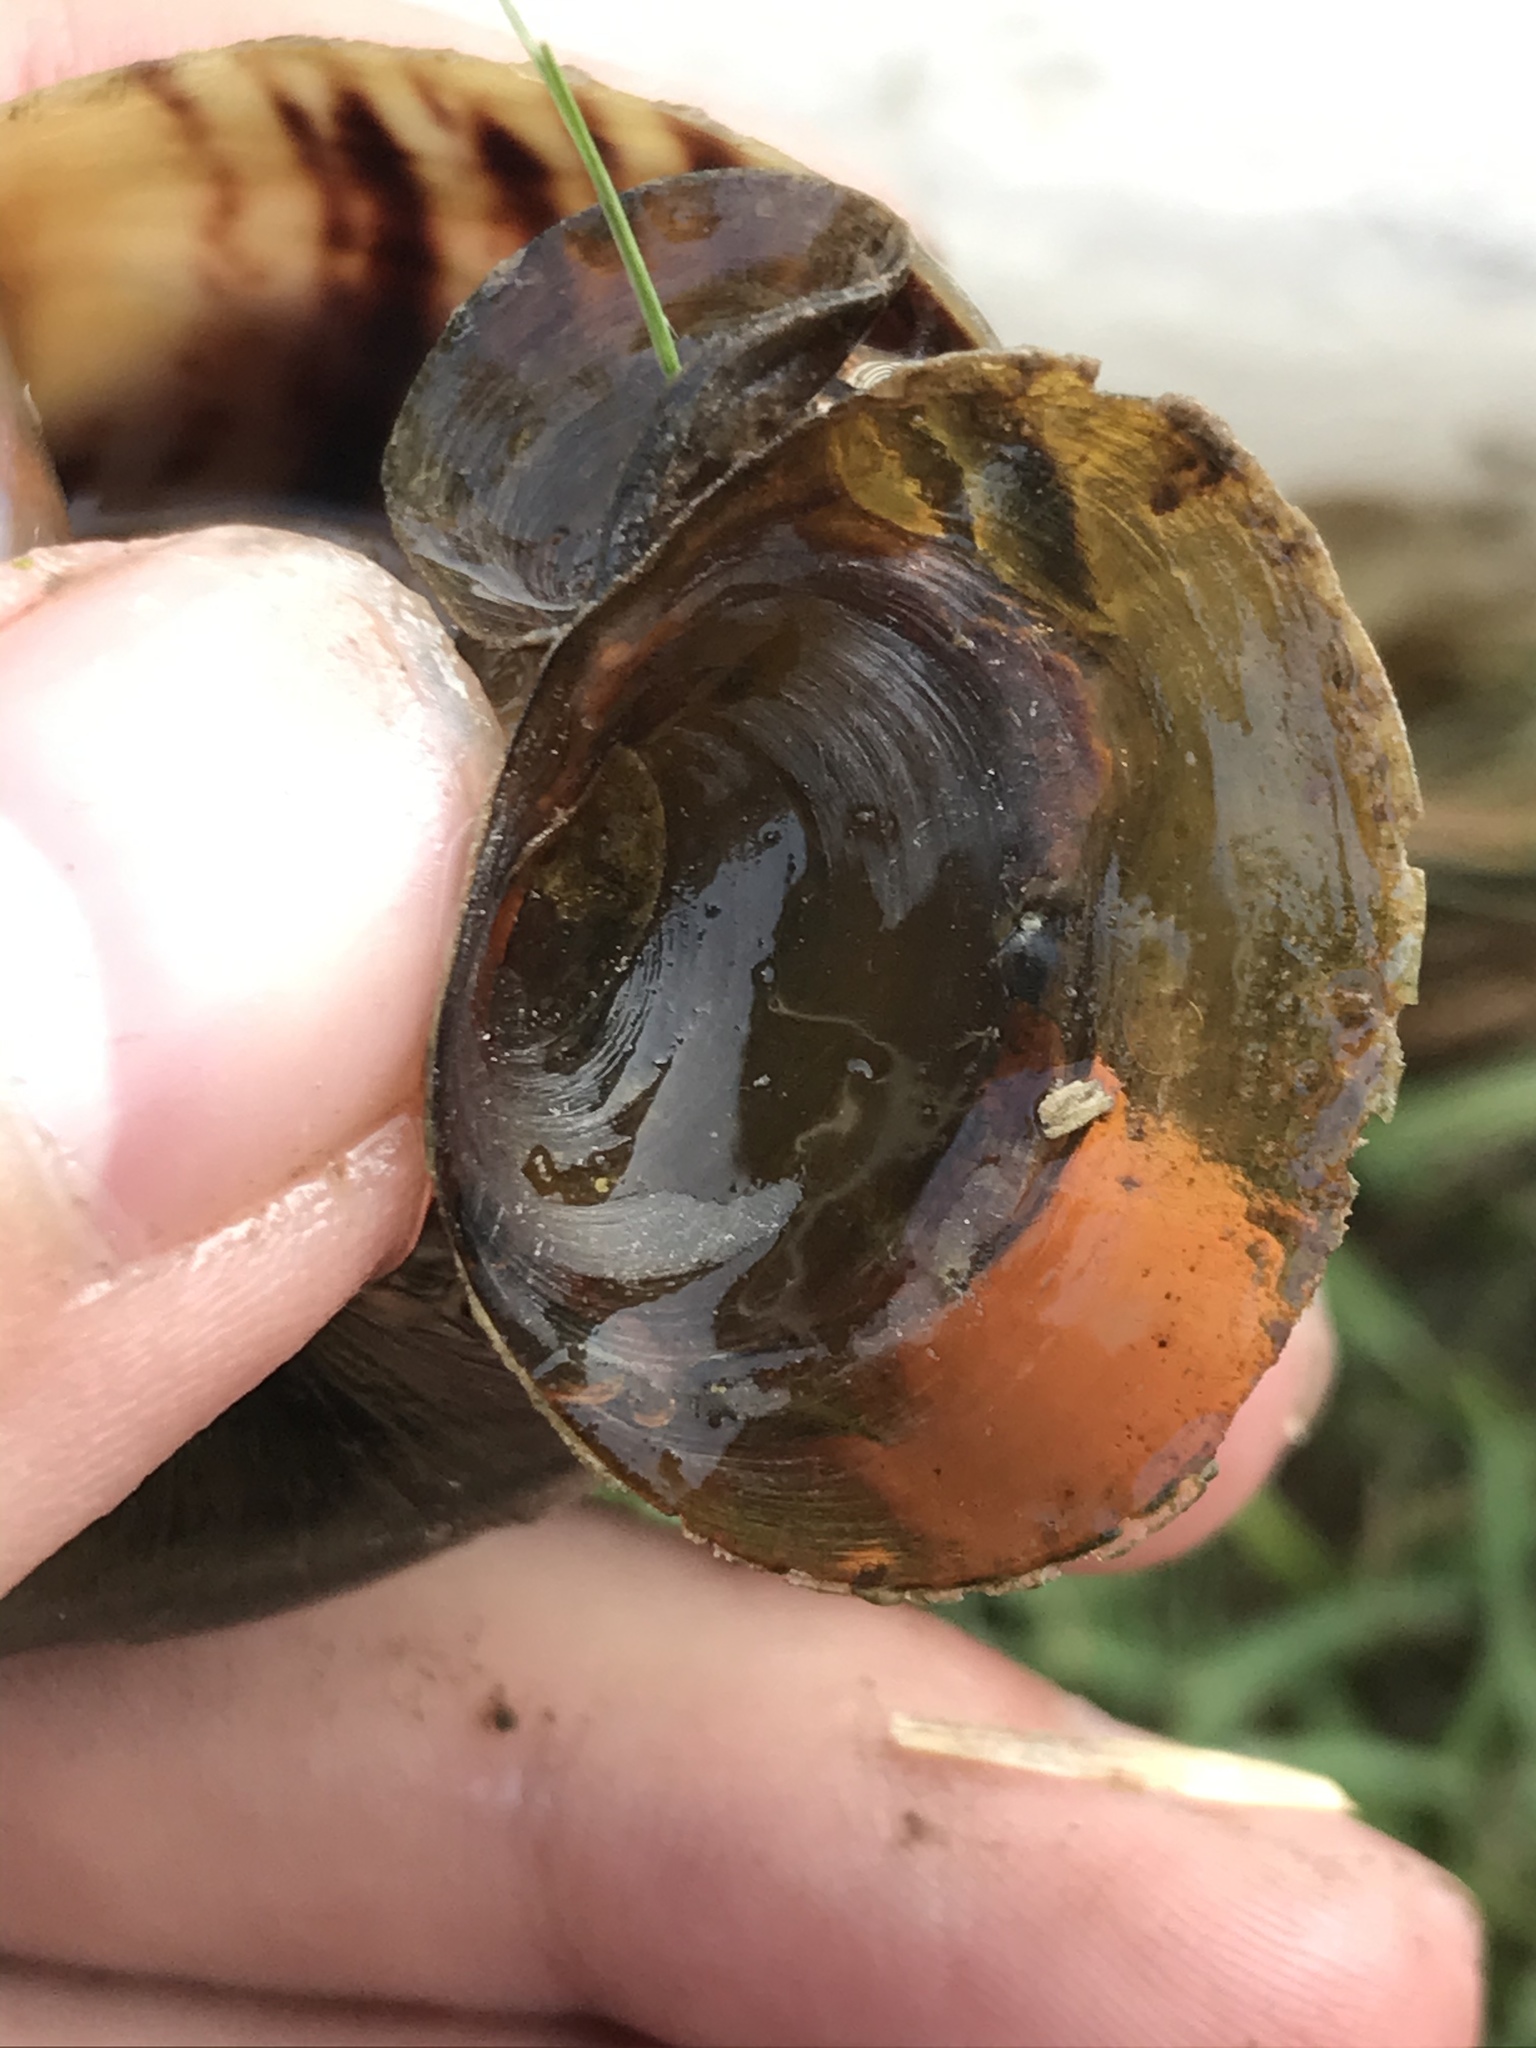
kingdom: Animalia
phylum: Mollusca
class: Gastropoda
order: Architaenioglossa
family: Ampullariidae
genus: Pomacea
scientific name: Pomacea canaliculata
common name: Channeled applesnail
